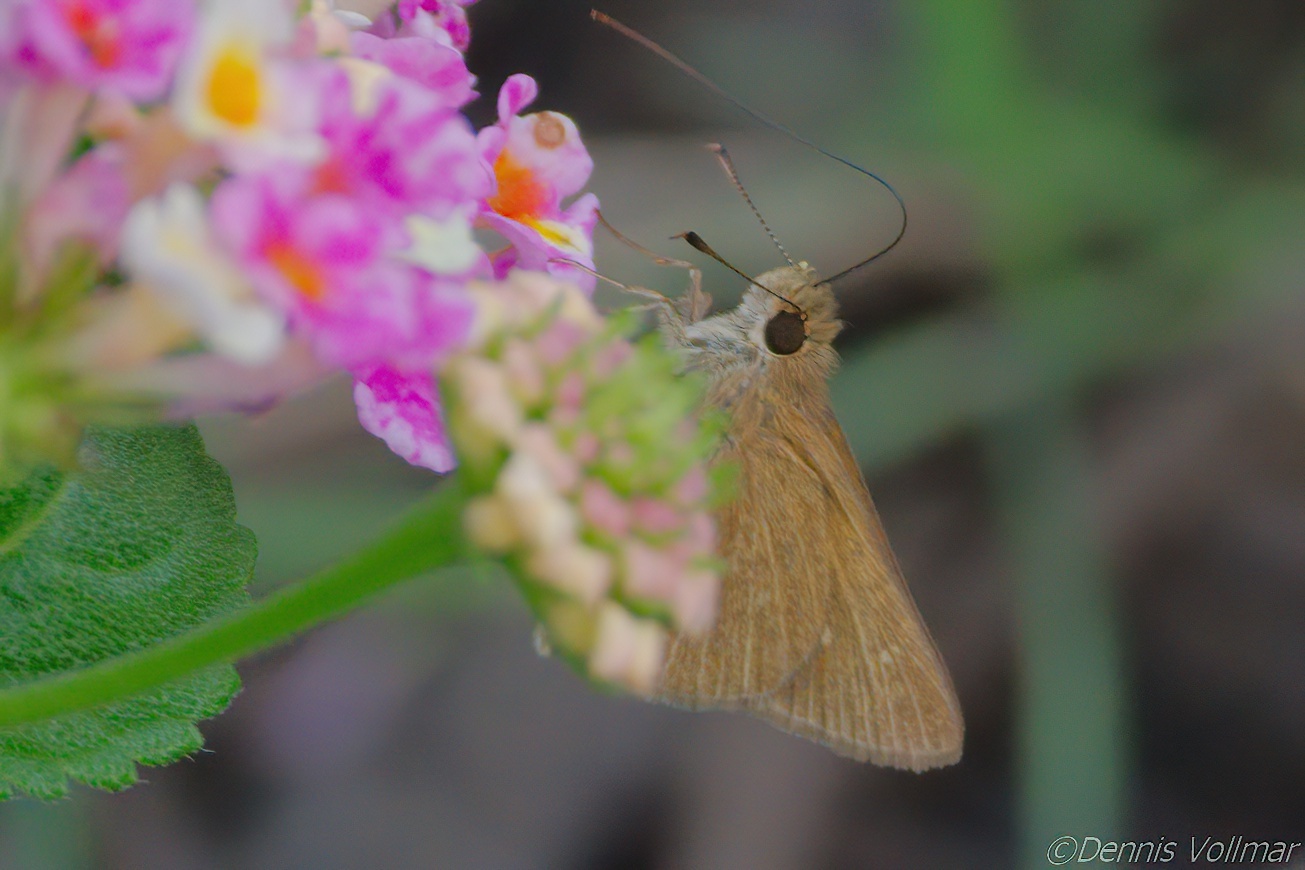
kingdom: Animalia
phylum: Arthropoda
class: Insecta
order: Lepidoptera
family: Hesperiidae
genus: Nastra
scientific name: Nastra julia
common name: Julia's skipper
